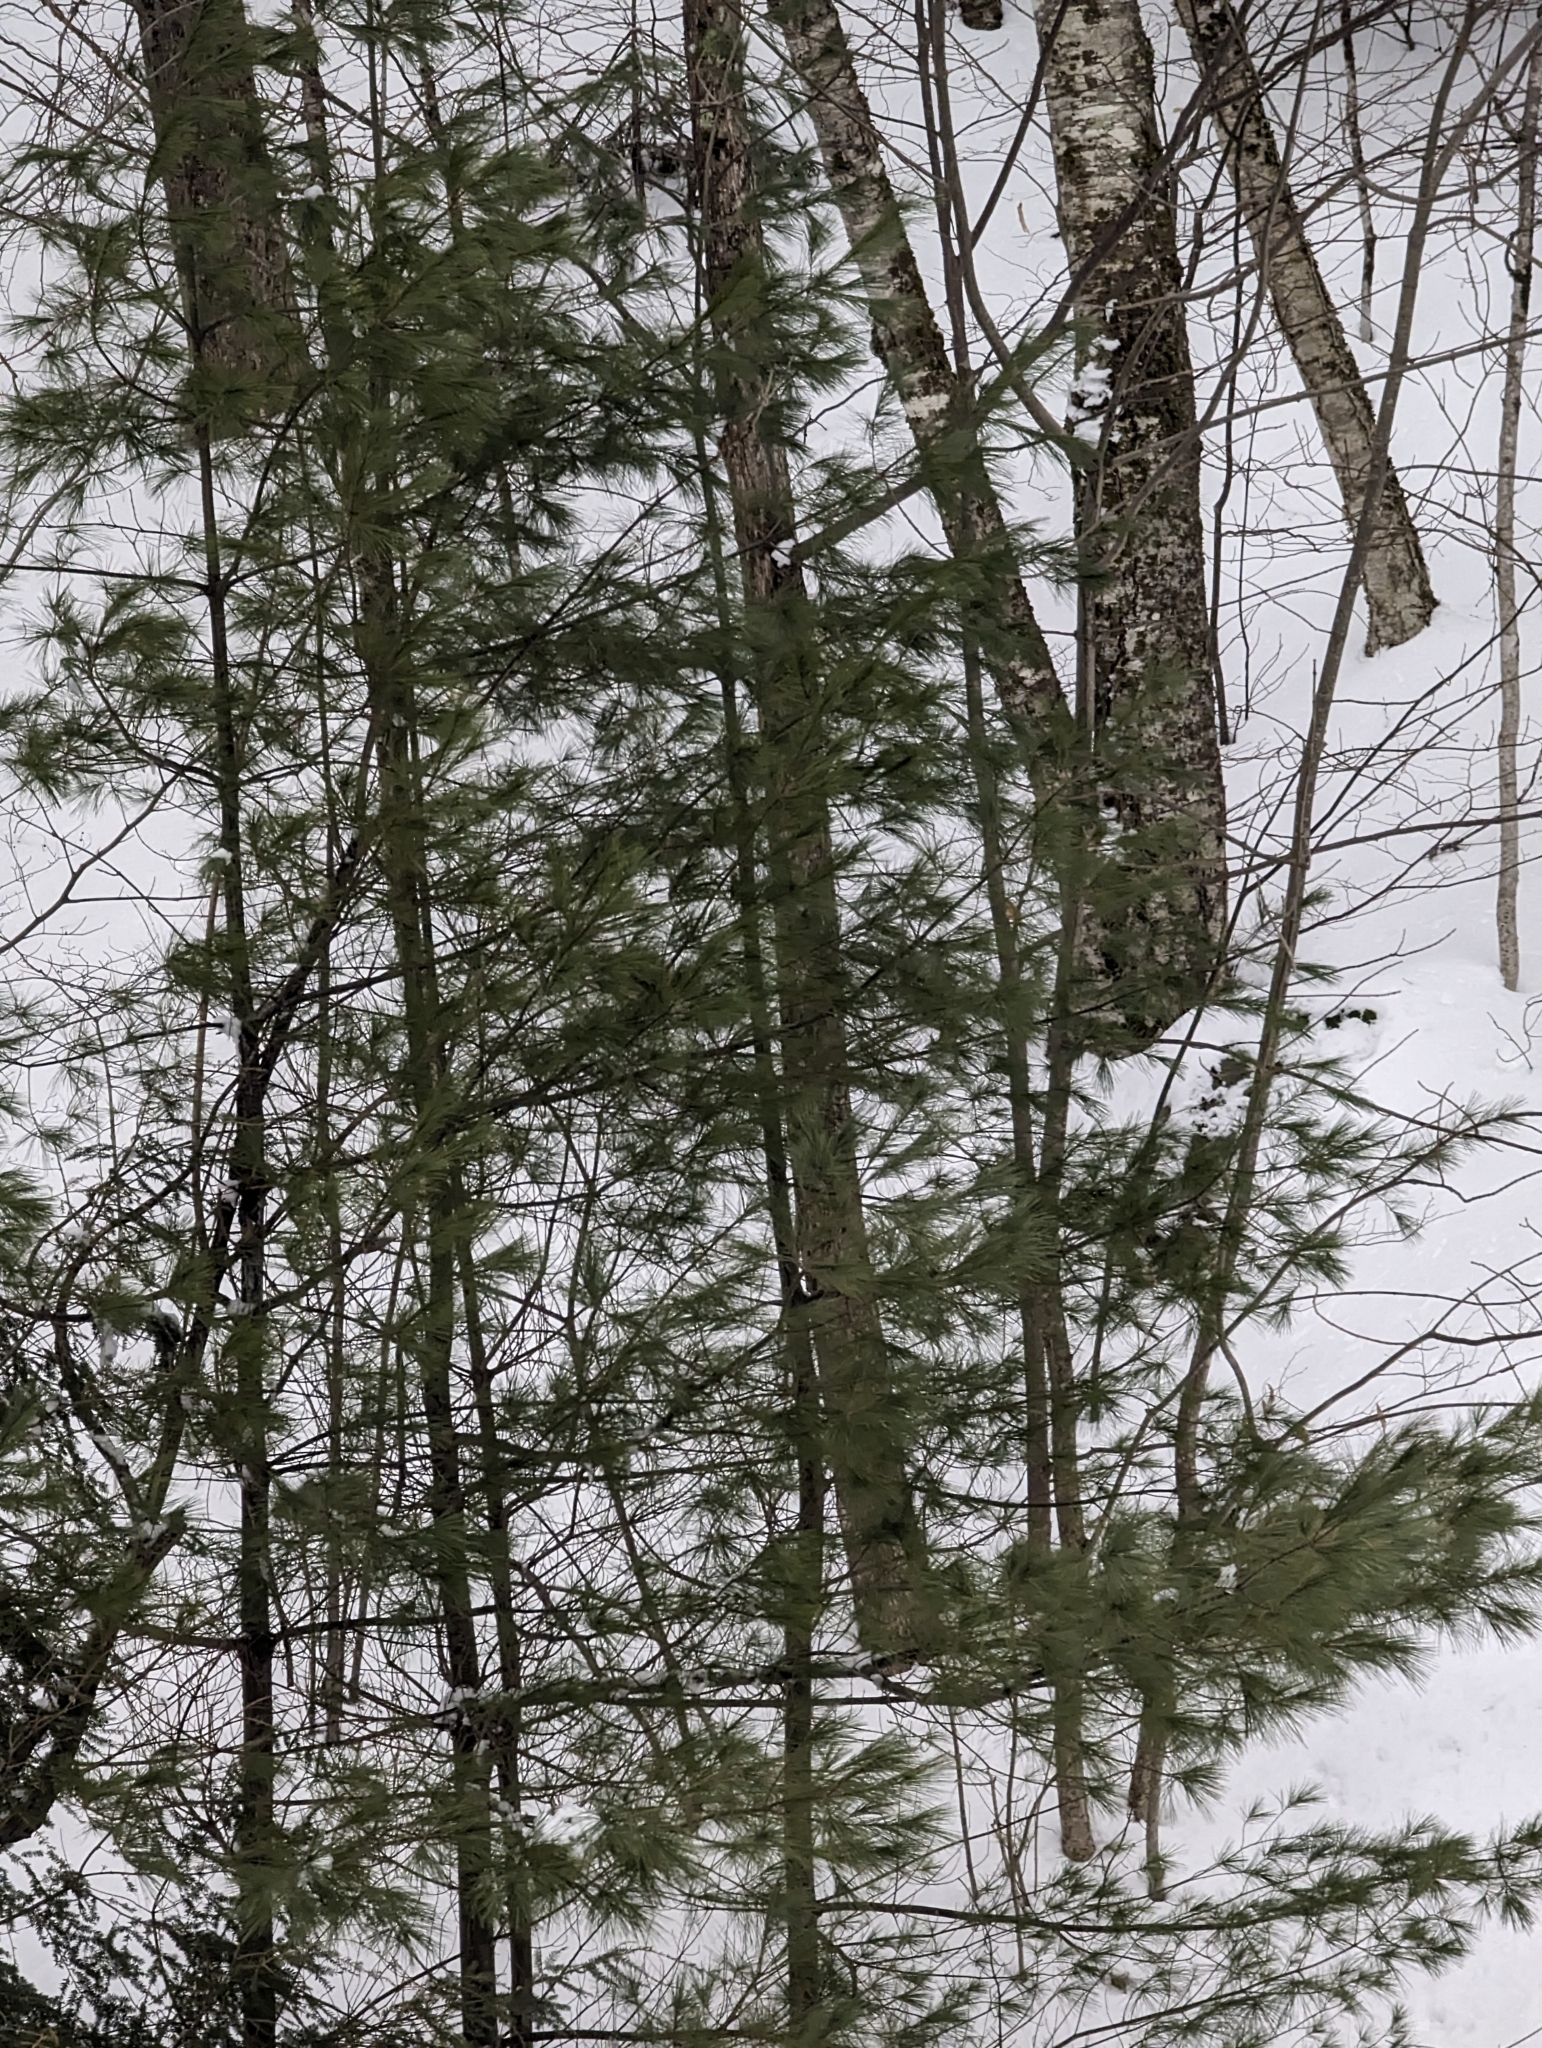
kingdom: Plantae
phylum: Tracheophyta
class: Pinopsida
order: Pinales
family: Pinaceae
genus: Pinus
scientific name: Pinus strobus
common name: Weymouth pine
